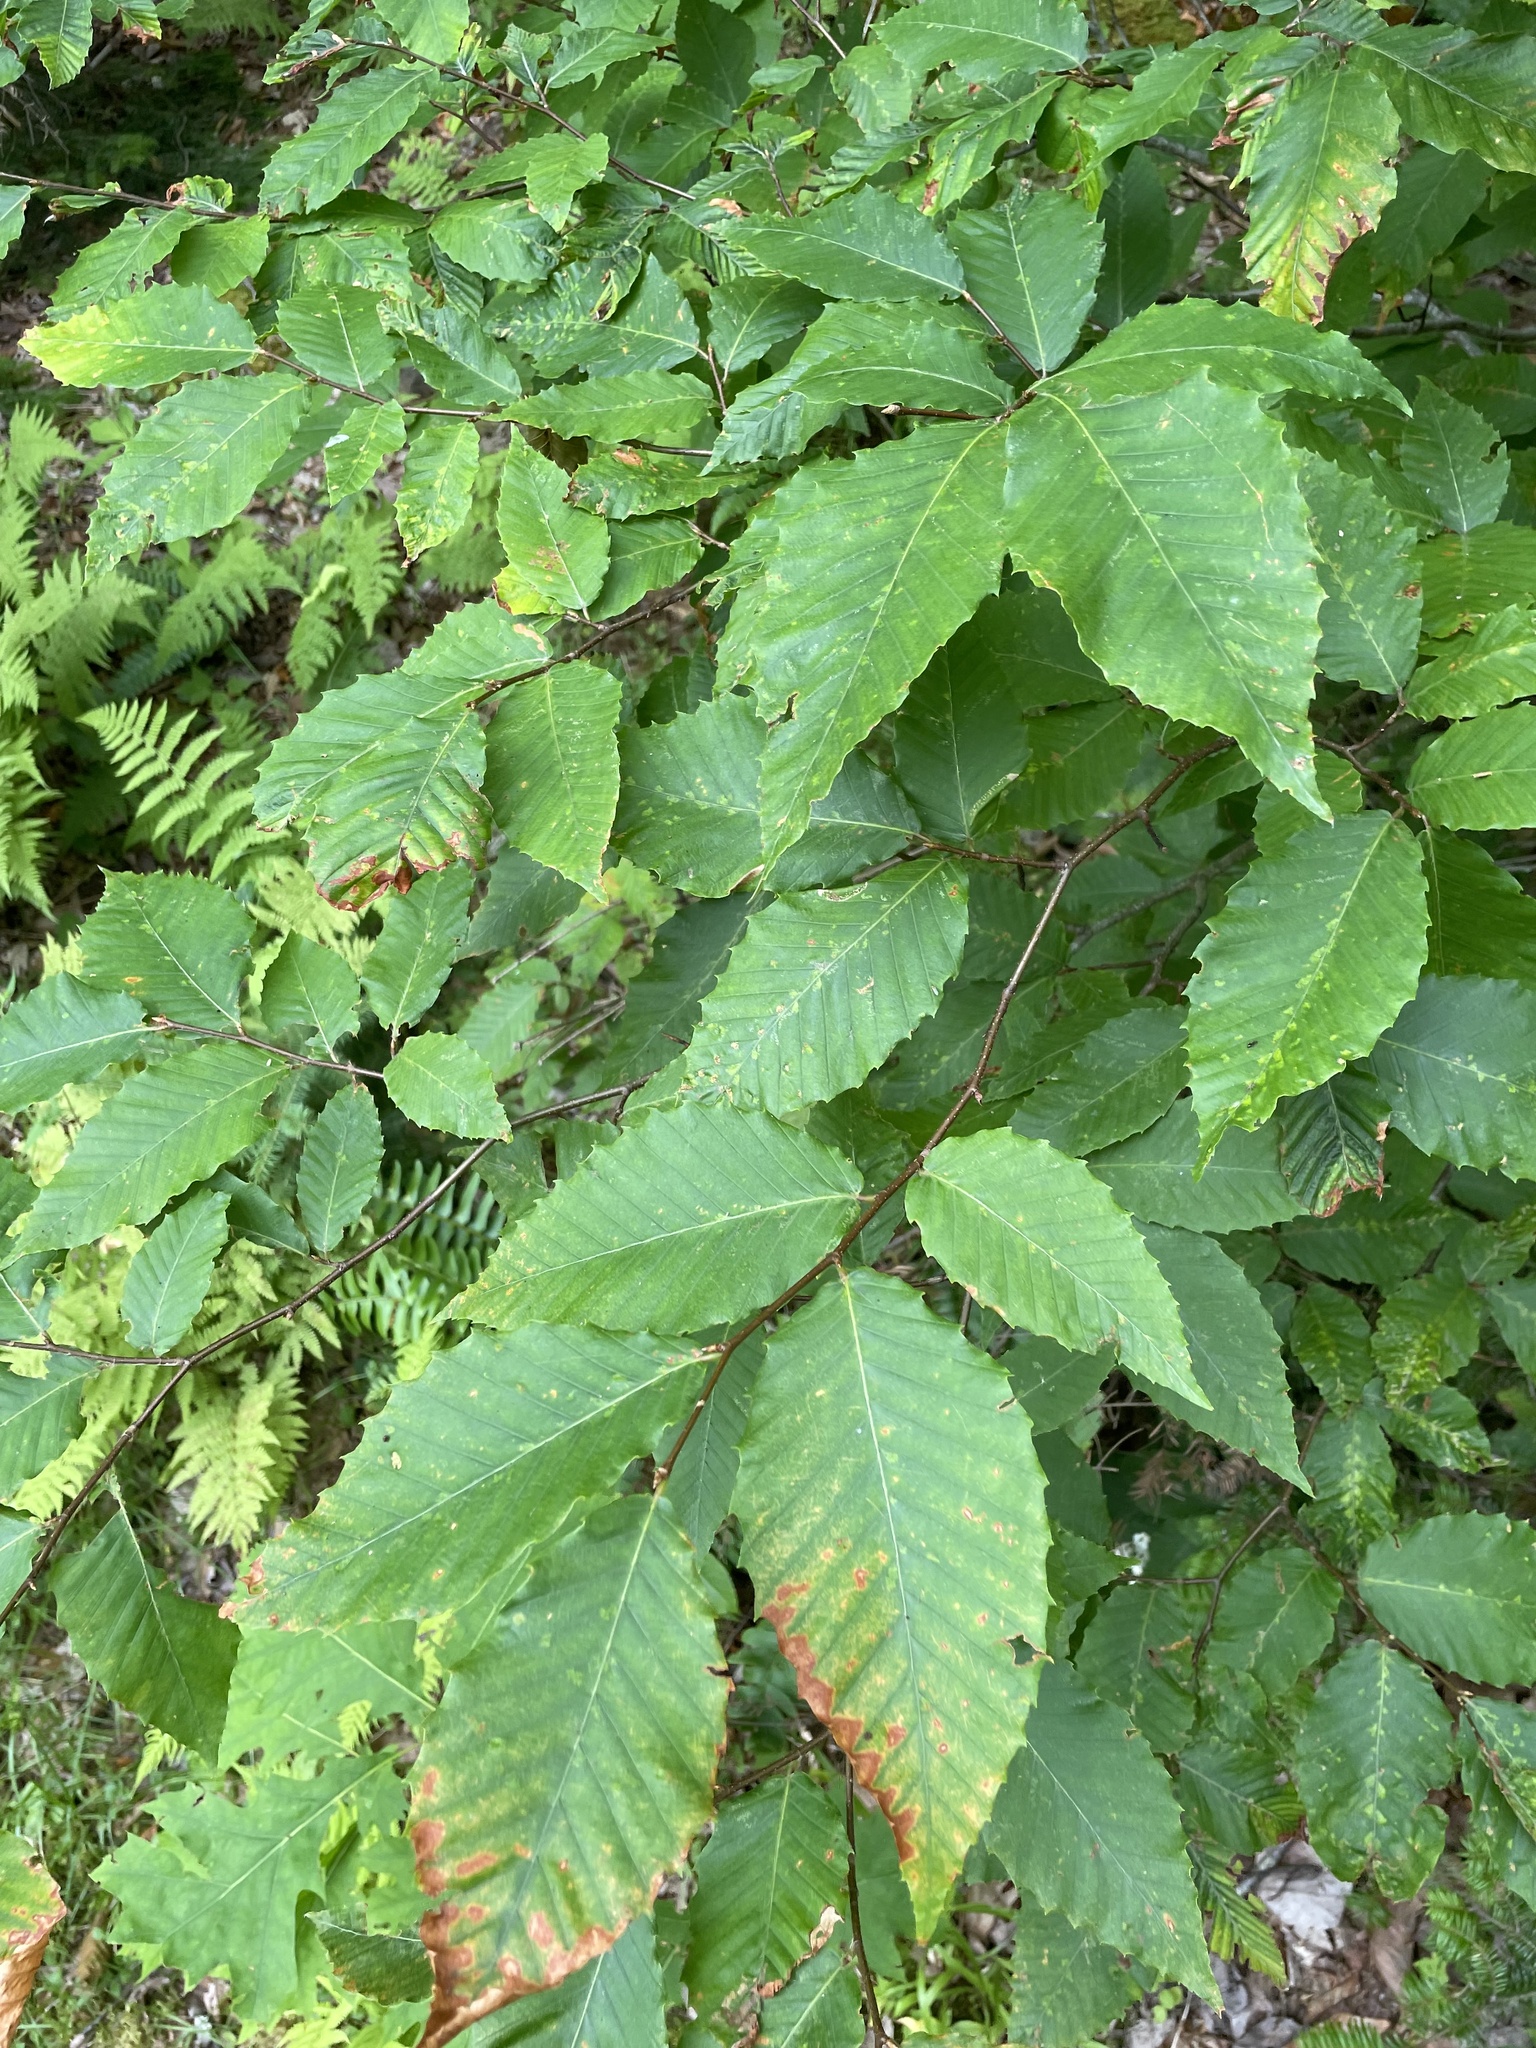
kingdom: Plantae
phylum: Tracheophyta
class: Magnoliopsida
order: Fagales
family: Fagaceae
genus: Fagus
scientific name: Fagus grandifolia
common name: American beech
